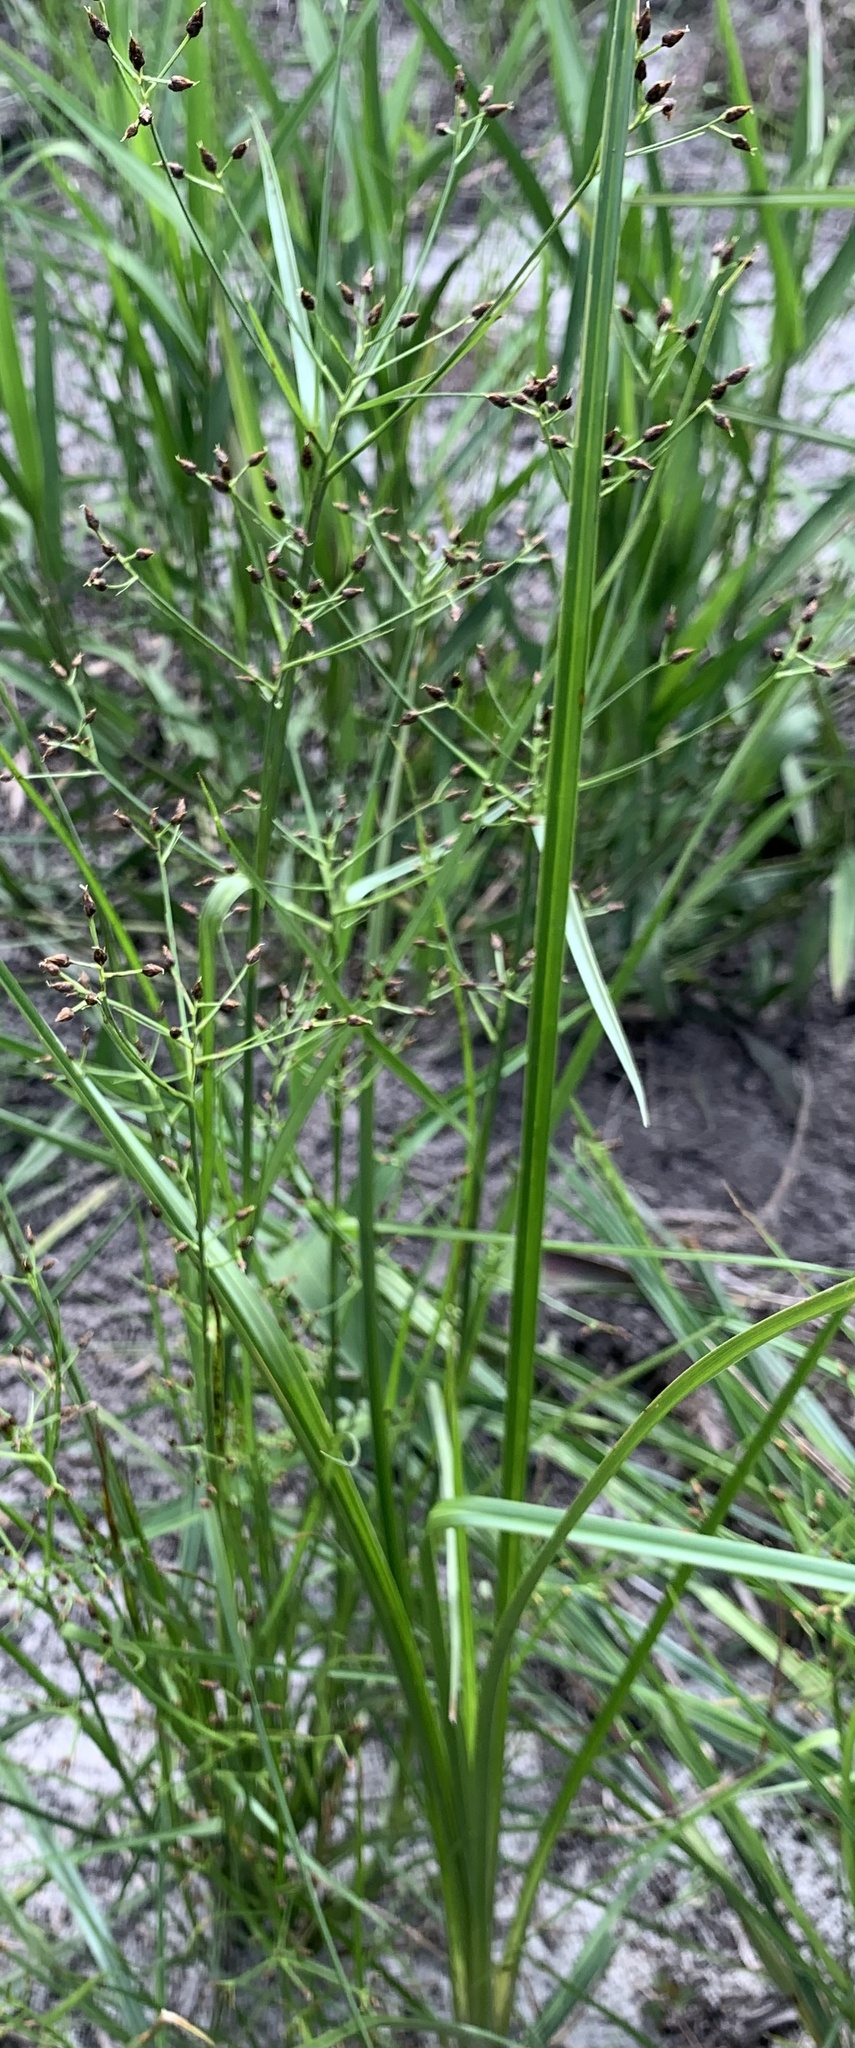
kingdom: Plantae
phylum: Tracheophyta
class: Liliopsida
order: Poales
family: Cyperaceae
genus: Rhynchospora
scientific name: Rhynchospora nitens
